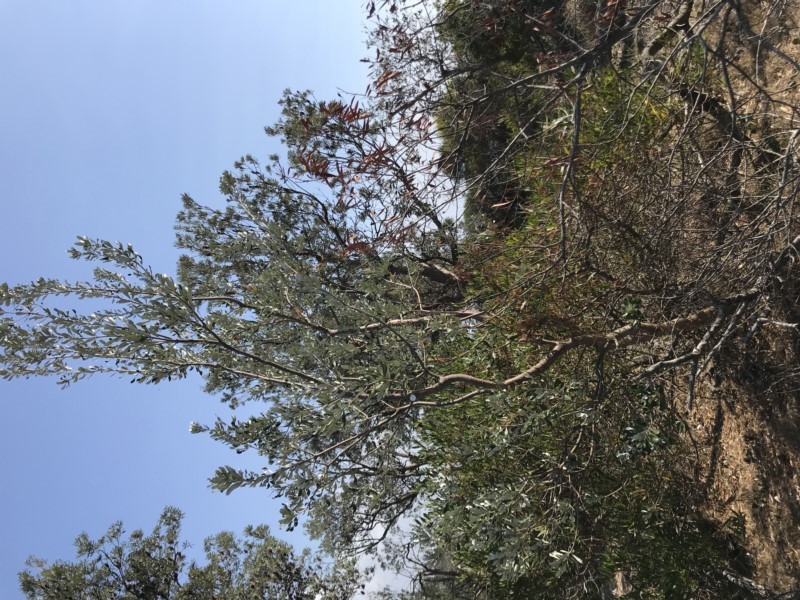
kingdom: Plantae
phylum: Tracheophyta
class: Magnoliopsida
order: Proteales
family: Proteaceae
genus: Banksia
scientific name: Banksia integrifolia
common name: White-honeysuckle
